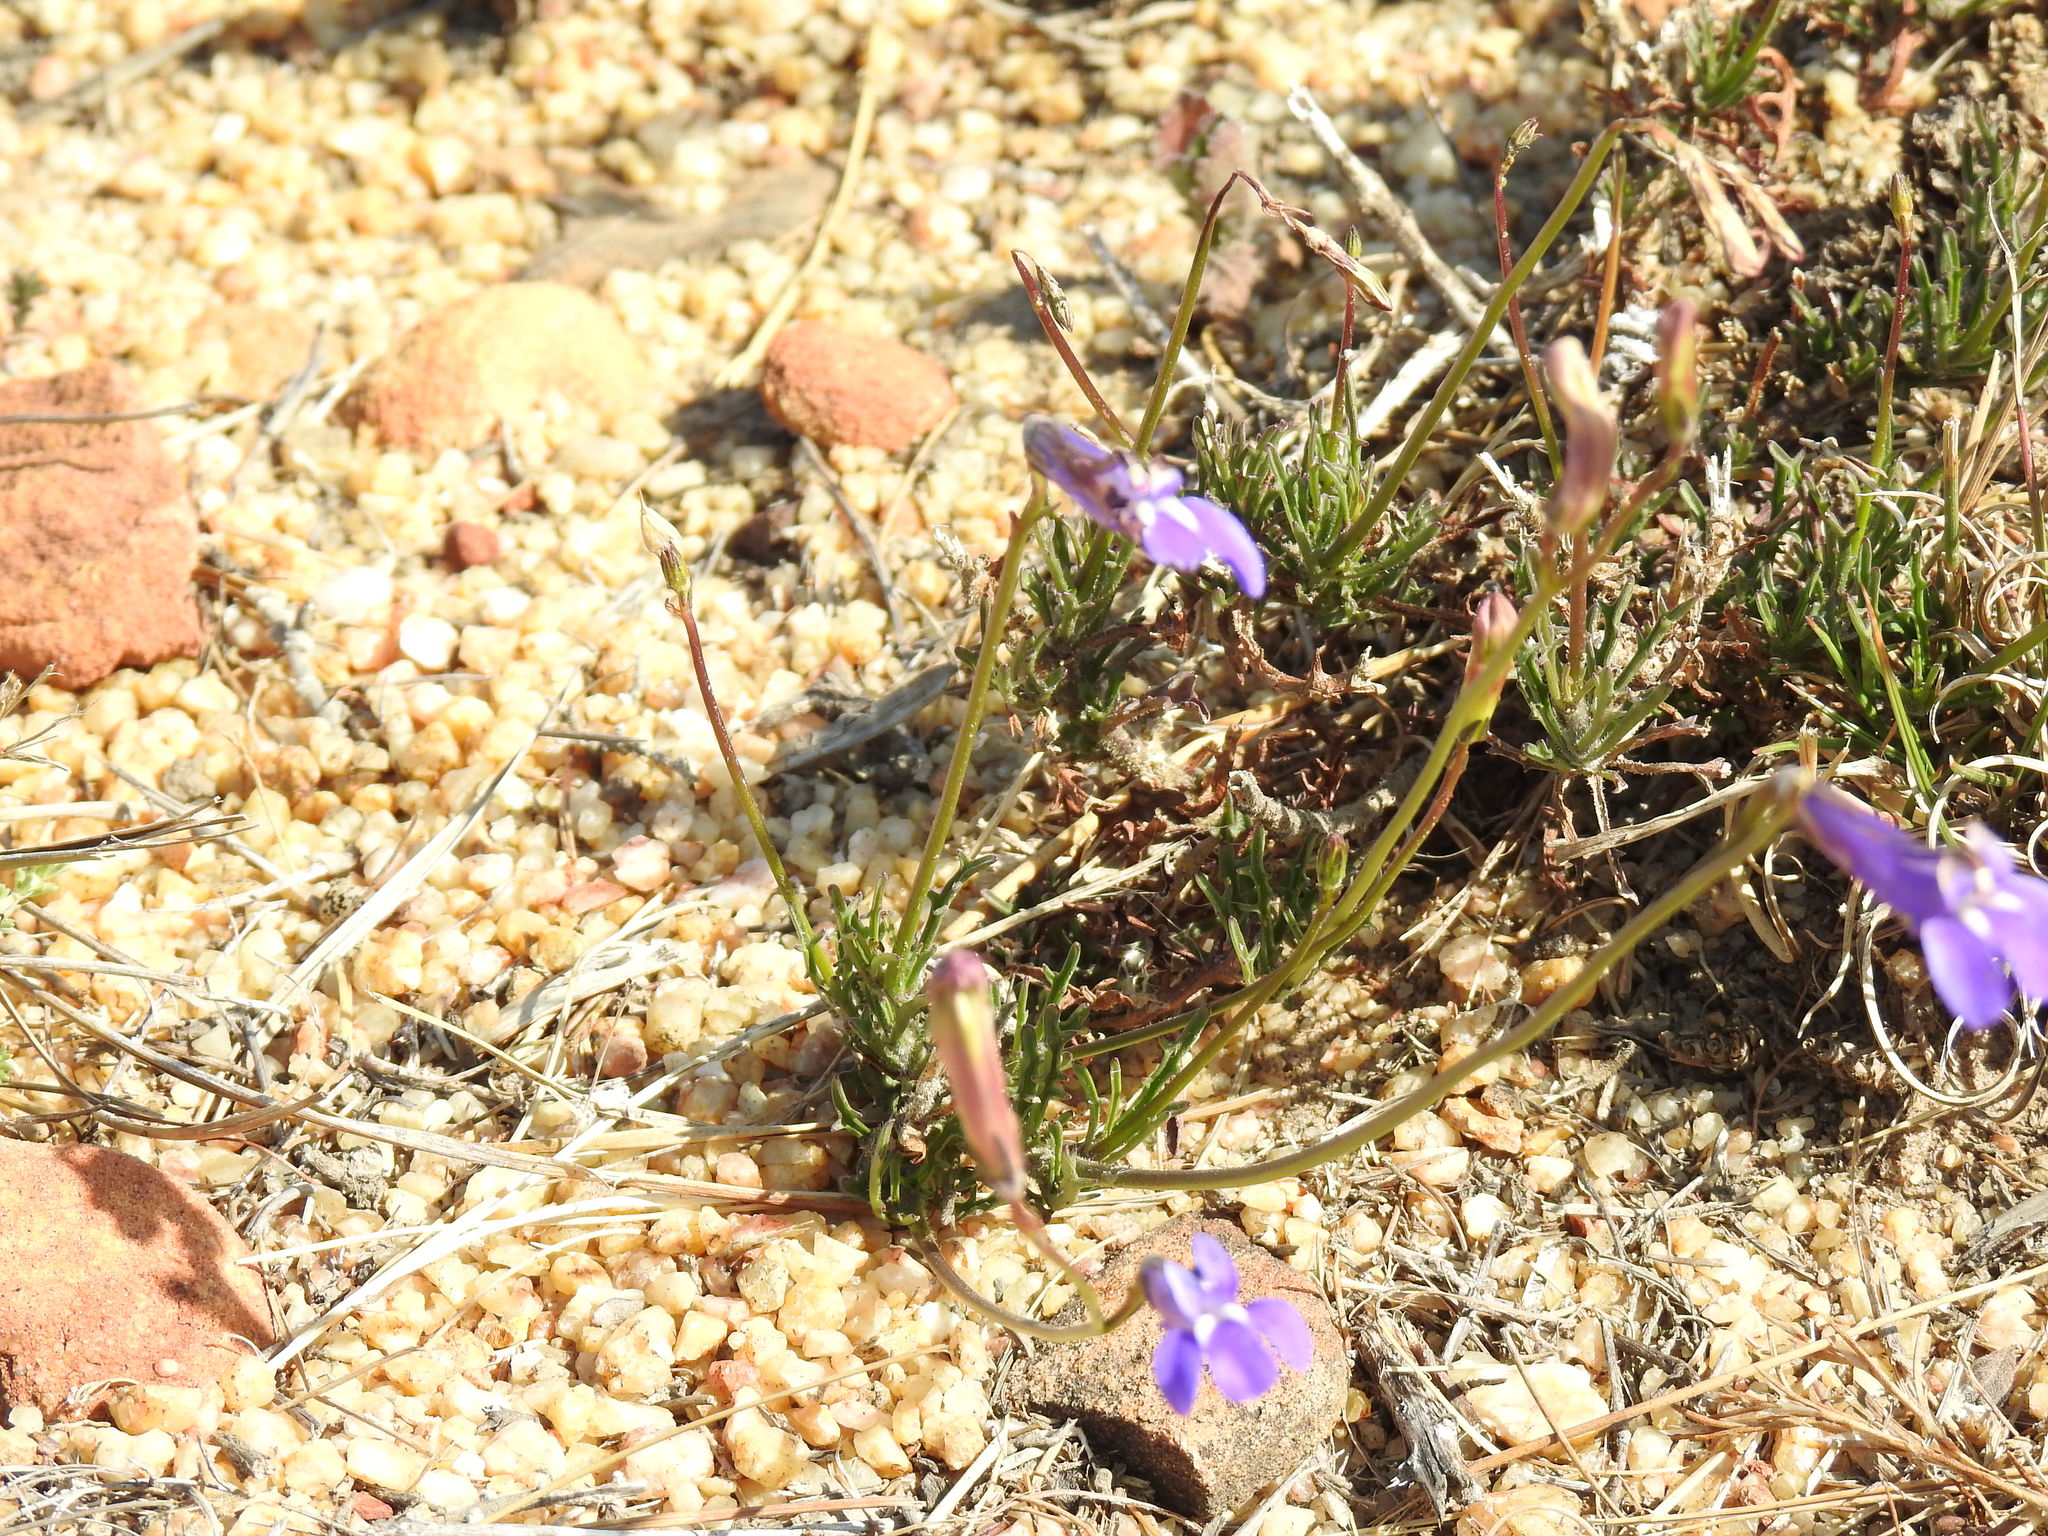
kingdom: Plantae
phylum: Tracheophyta
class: Magnoliopsida
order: Asterales
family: Campanulaceae
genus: Lobelia
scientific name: Lobelia coronopifolia
